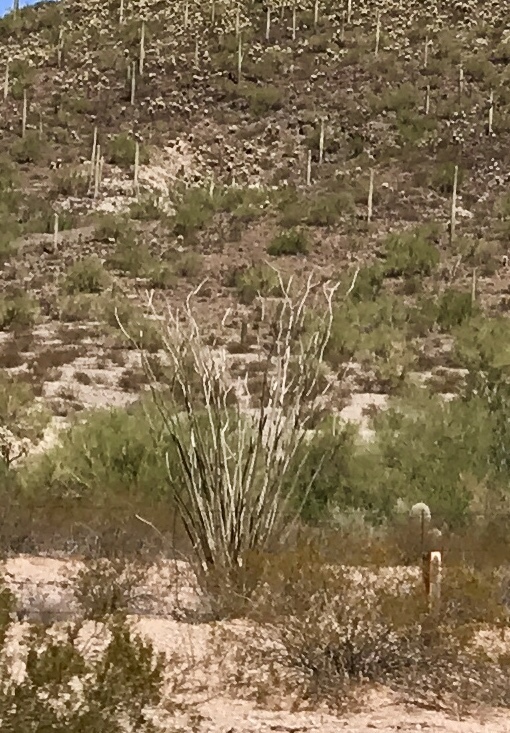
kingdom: Plantae
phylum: Tracheophyta
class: Magnoliopsida
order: Ericales
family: Fouquieriaceae
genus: Fouquieria
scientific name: Fouquieria splendens
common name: Vine-cactus
